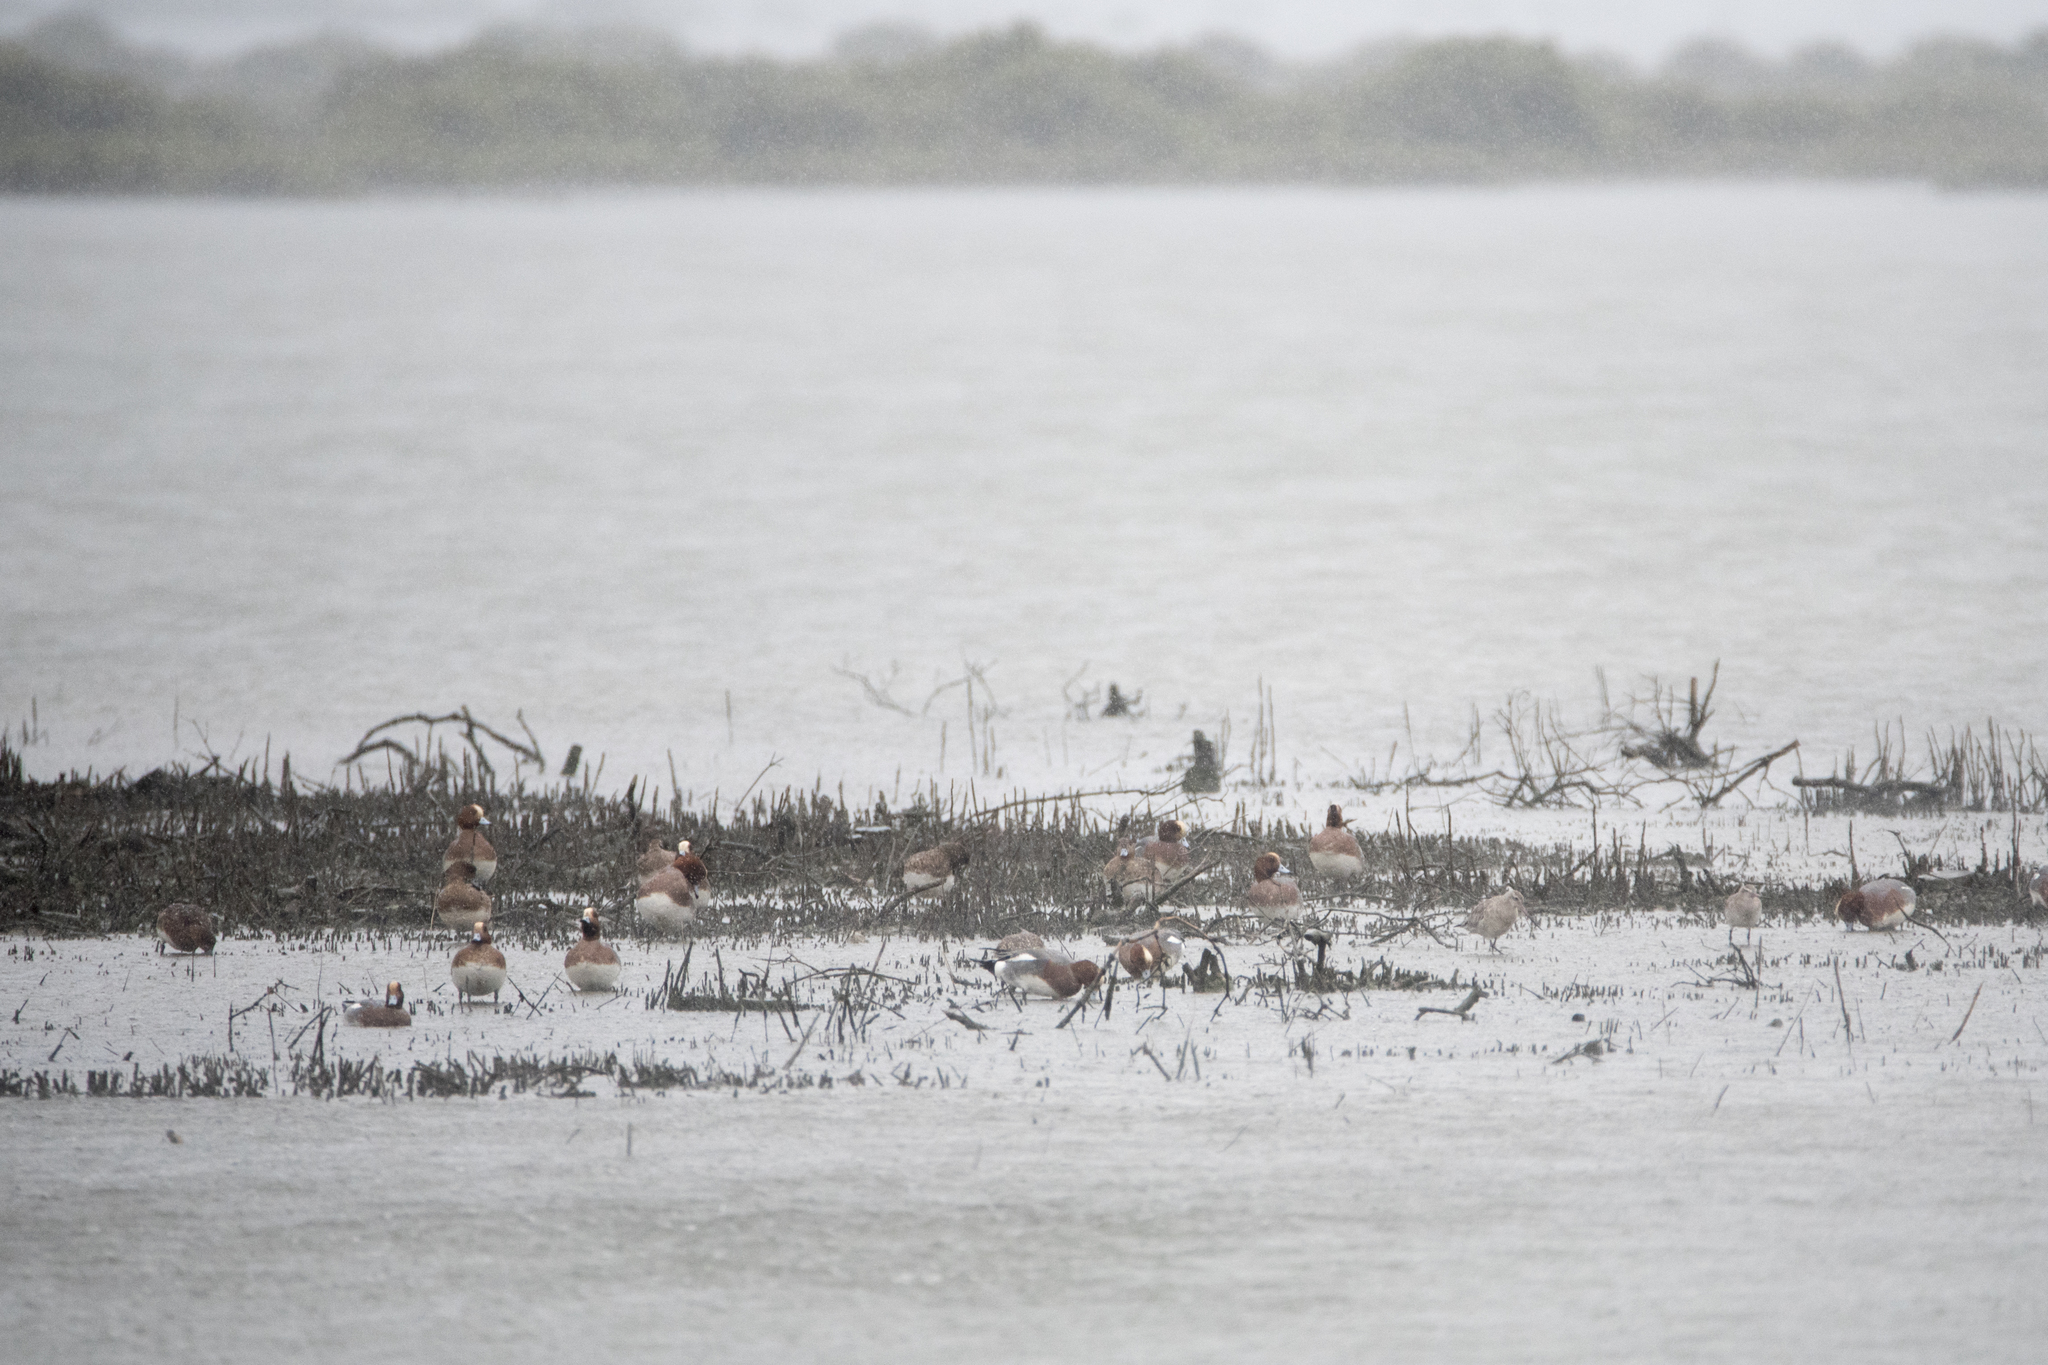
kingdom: Animalia
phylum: Chordata
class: Aves
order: Anseriformes
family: Anatidae
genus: Mareca
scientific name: Mareca penelope
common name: Eurasian wigeon
